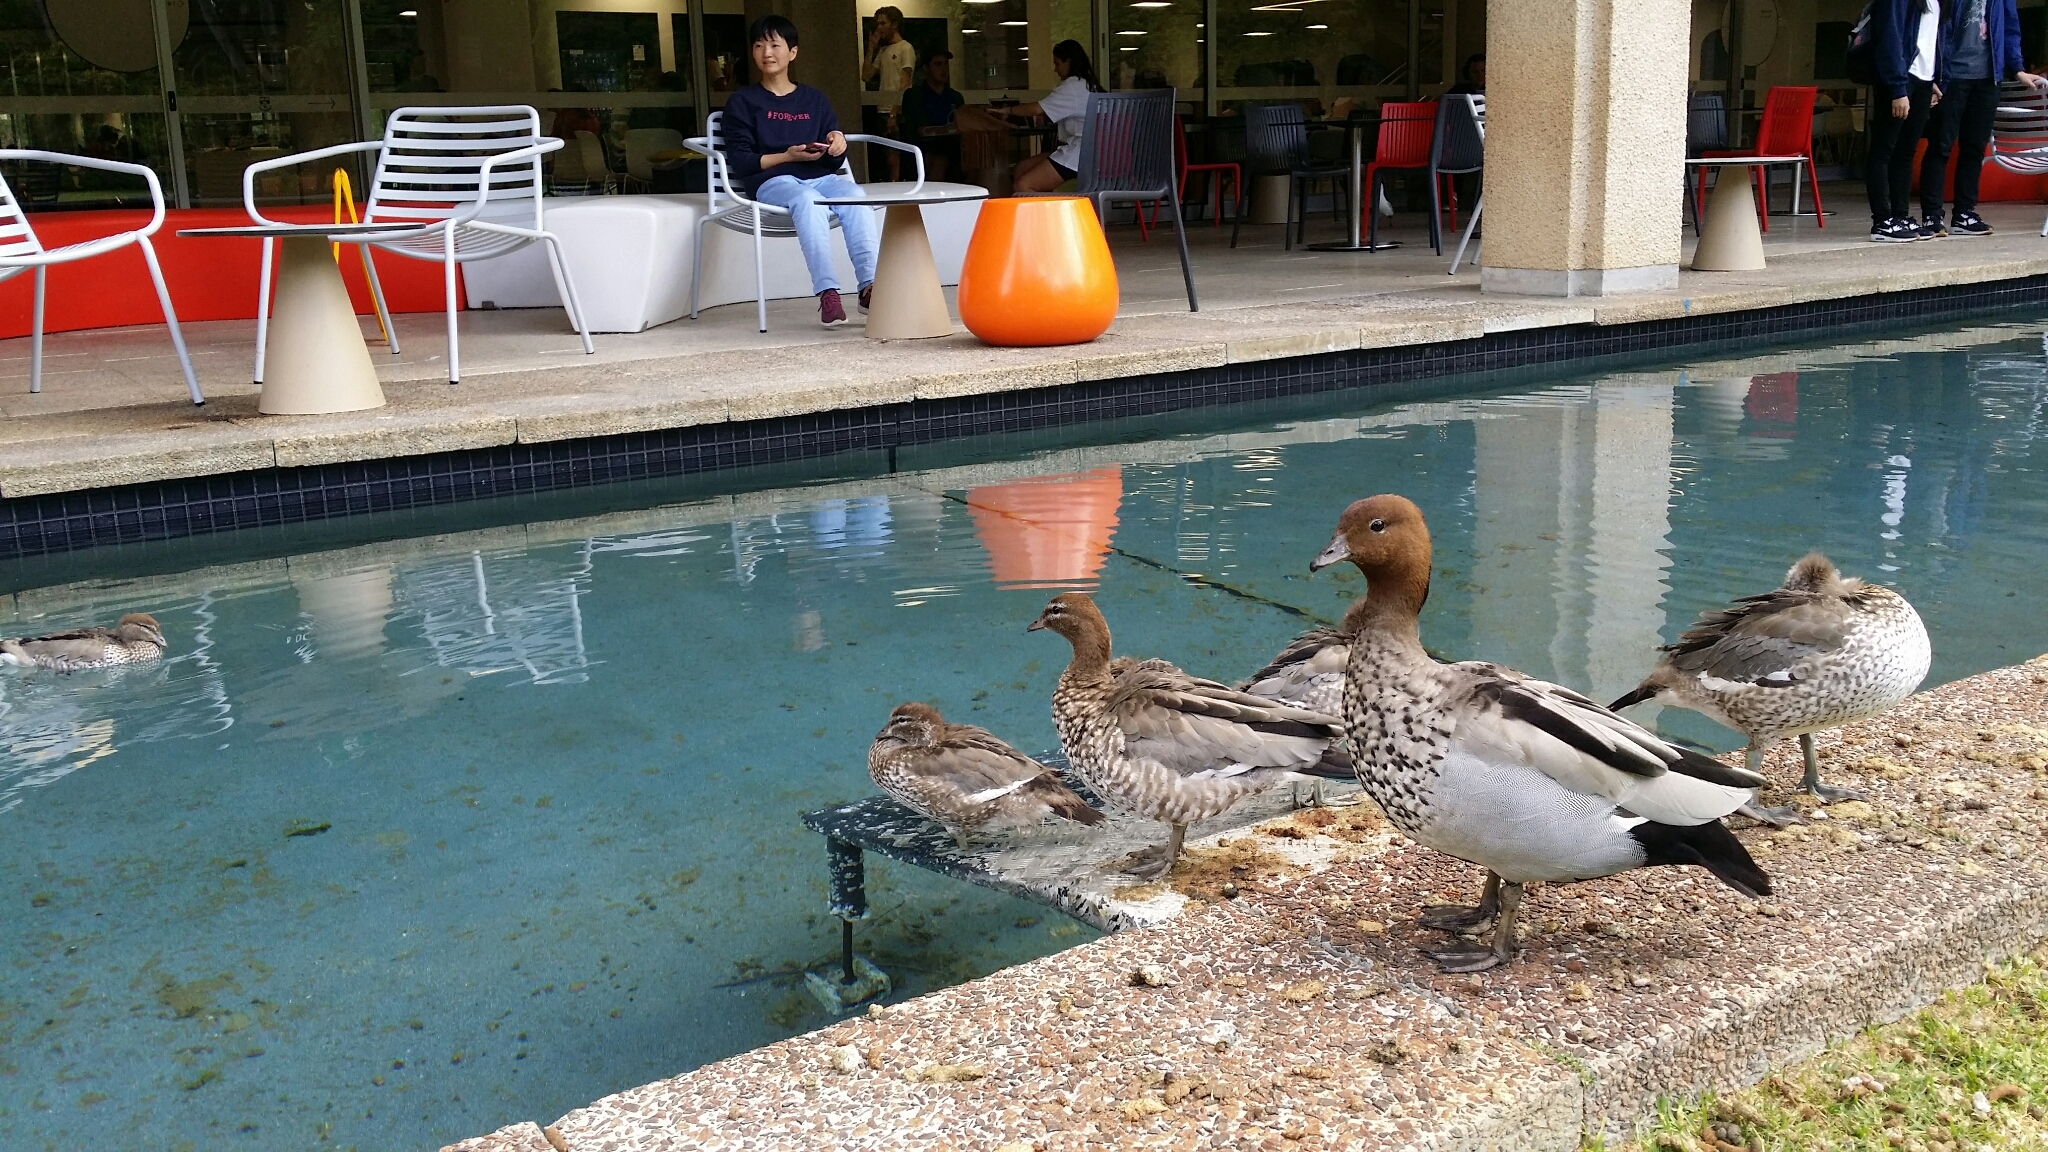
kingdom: Animalia
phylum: Chordata
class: Aves
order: Anseriformes
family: Anatidae
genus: Chenonetta
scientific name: Chenonetta jubata
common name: Maned duck
